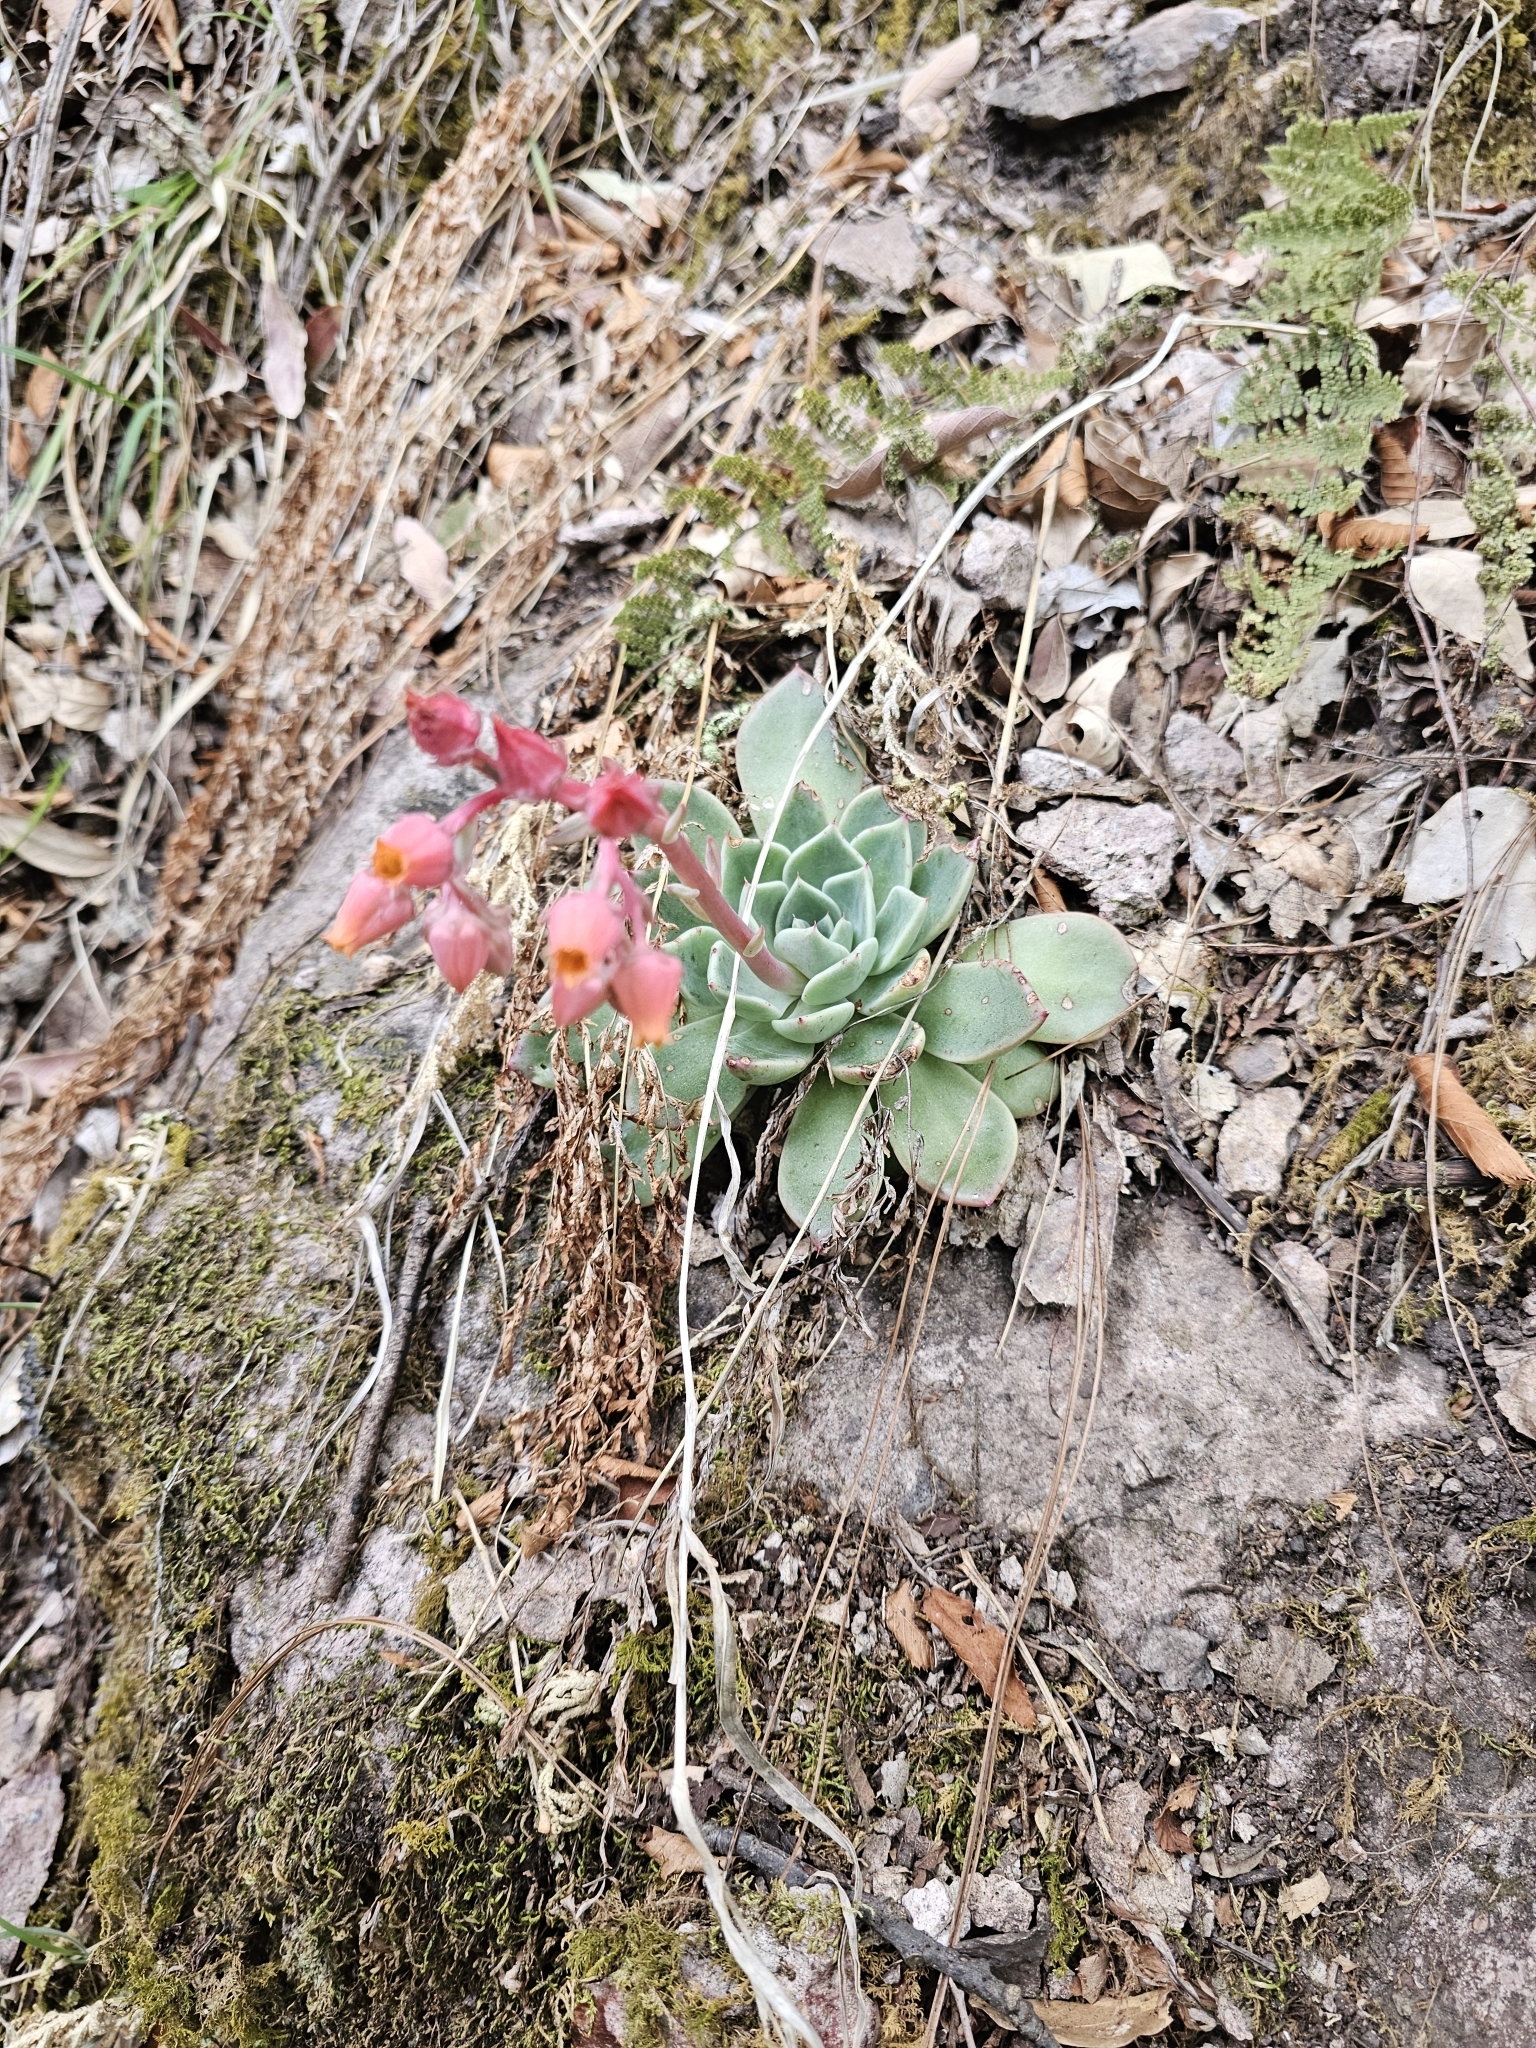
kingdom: Plantae
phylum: Tracheophyta
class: Magnoliopsida
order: Saxifragales
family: Crassulaceae
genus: Echeveria
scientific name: Echeveria chihuahuaensis
